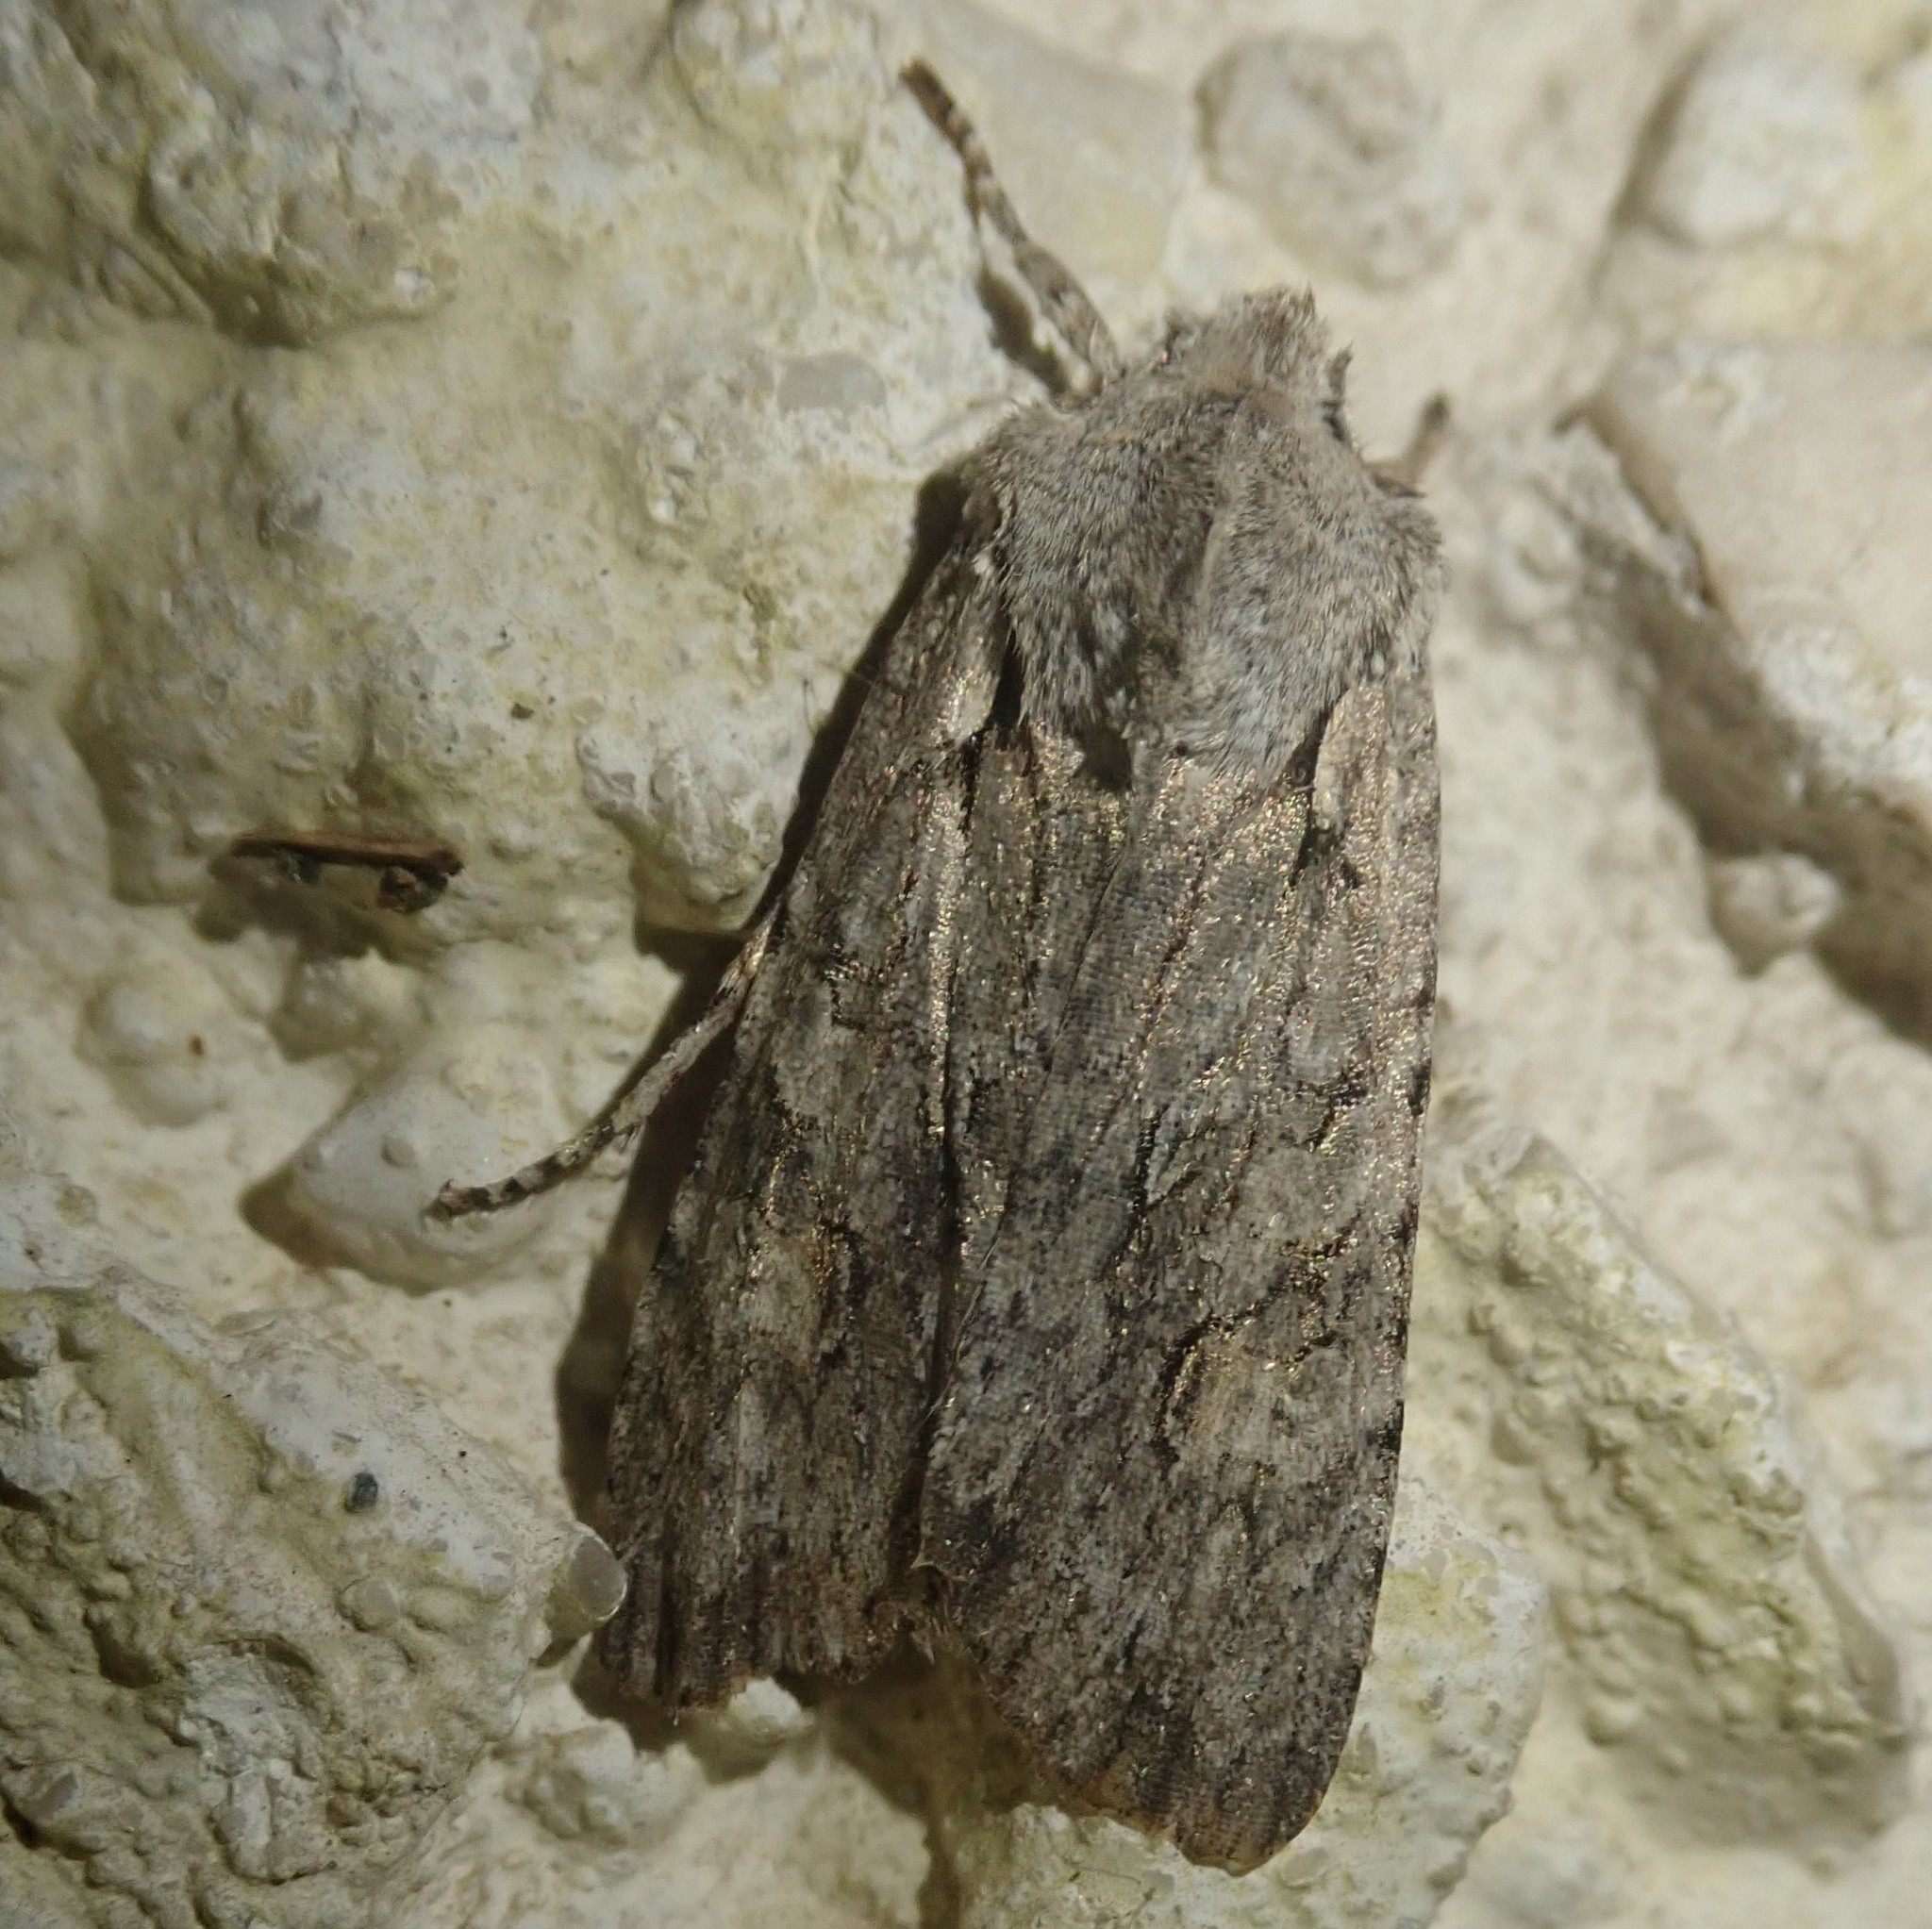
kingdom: Animalia
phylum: Arthropoda
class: Insecta
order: Lepidoptera
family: Noctuidae
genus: Lithophane
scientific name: Lithophane ornitopus
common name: Grey shoulder-knot
